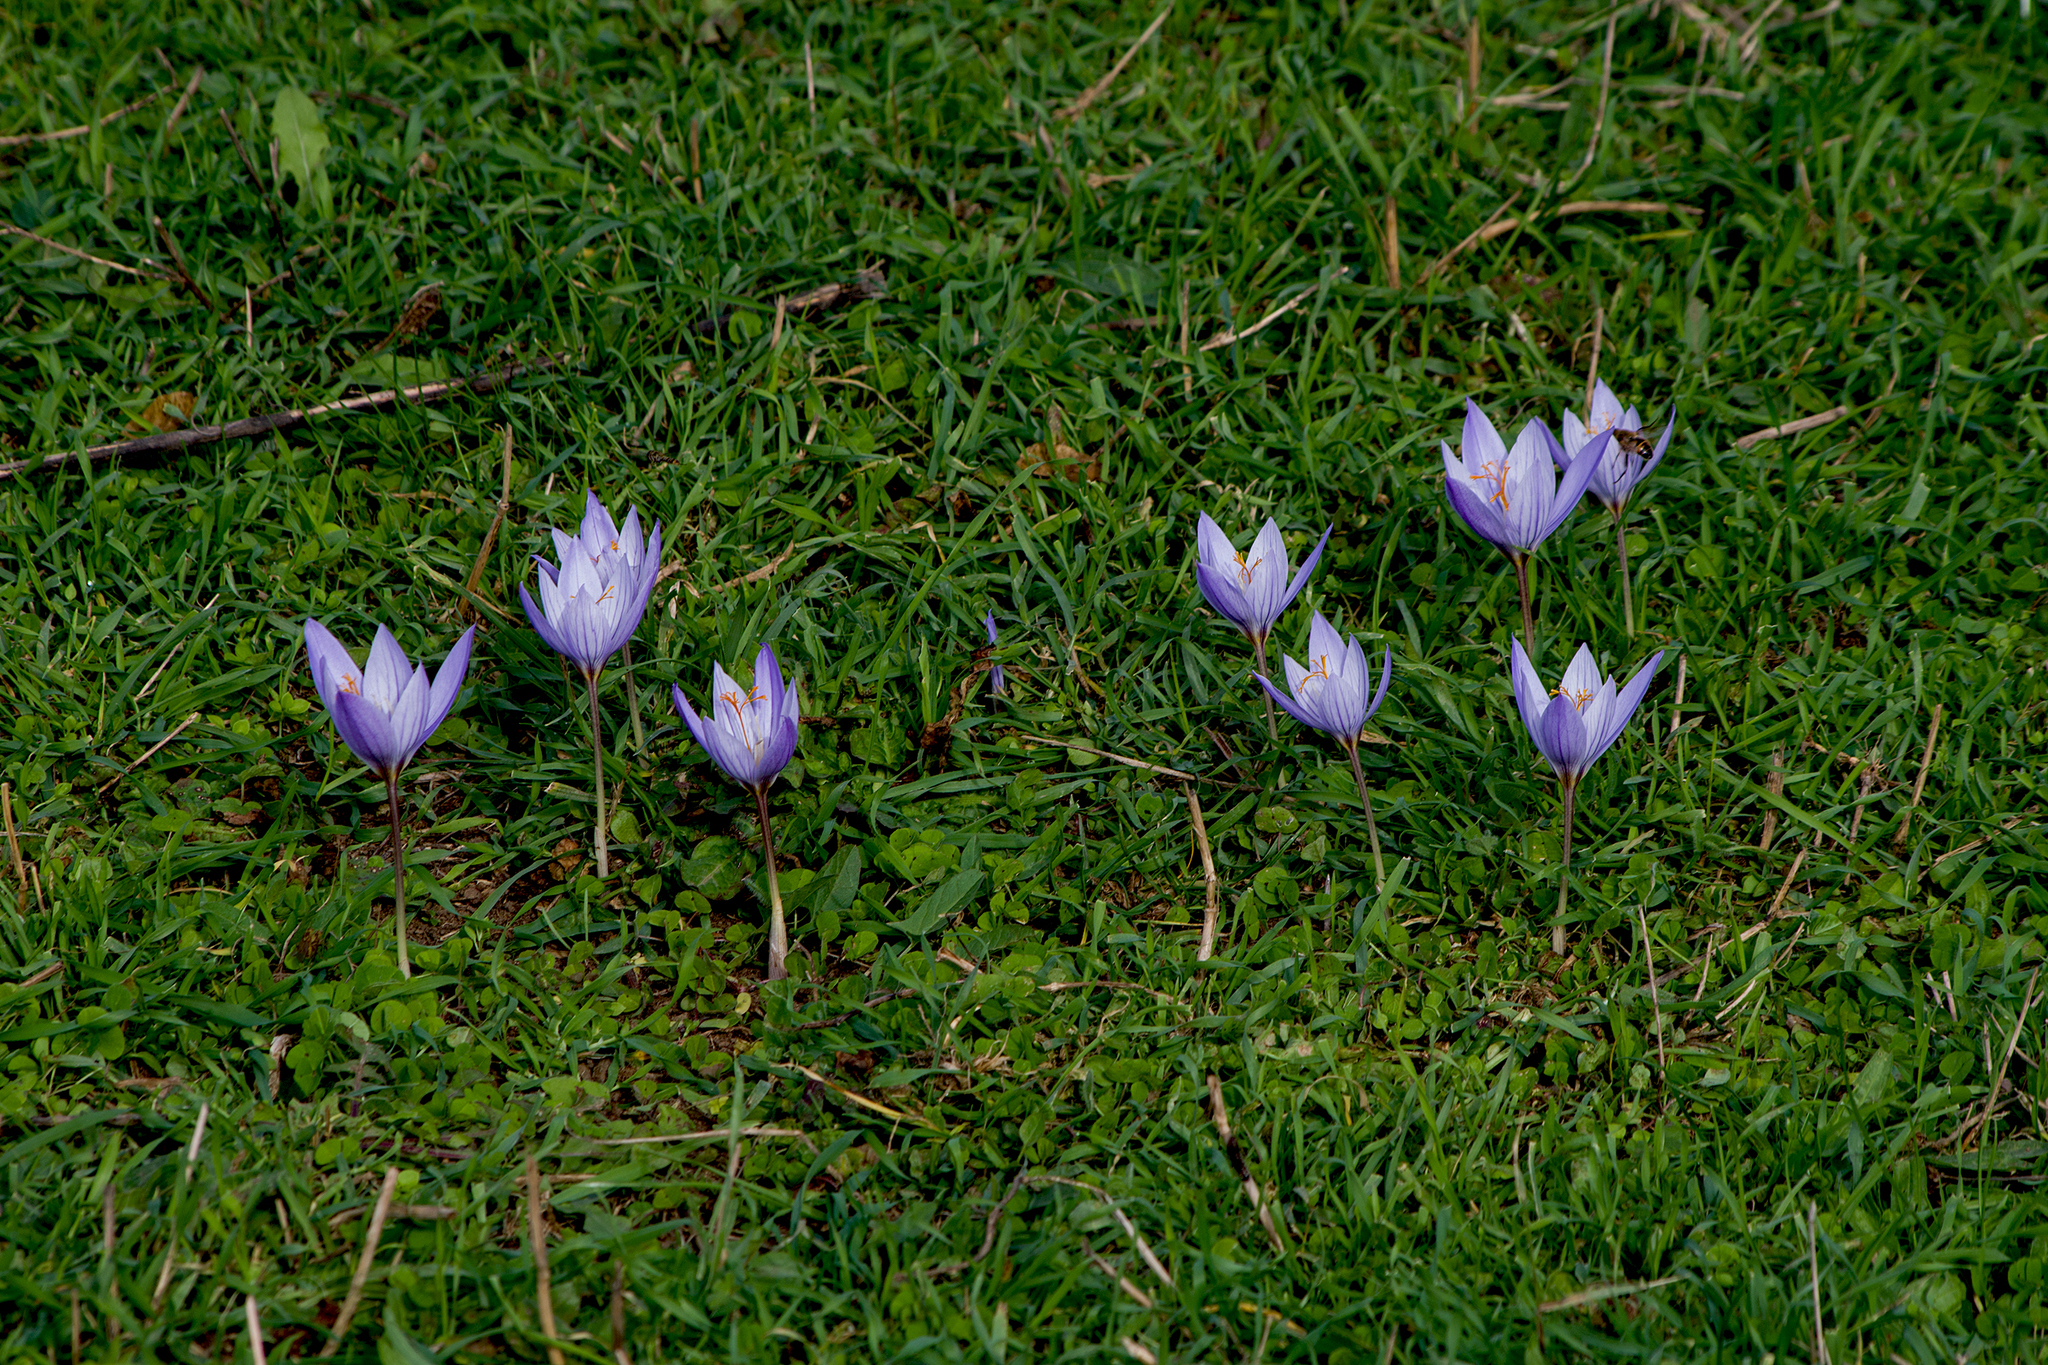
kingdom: Plantae
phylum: Tracheophyta
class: Liliopsida
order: Asparagales
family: Iridaceae
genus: Crocus
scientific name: Crocus ibrahimii
